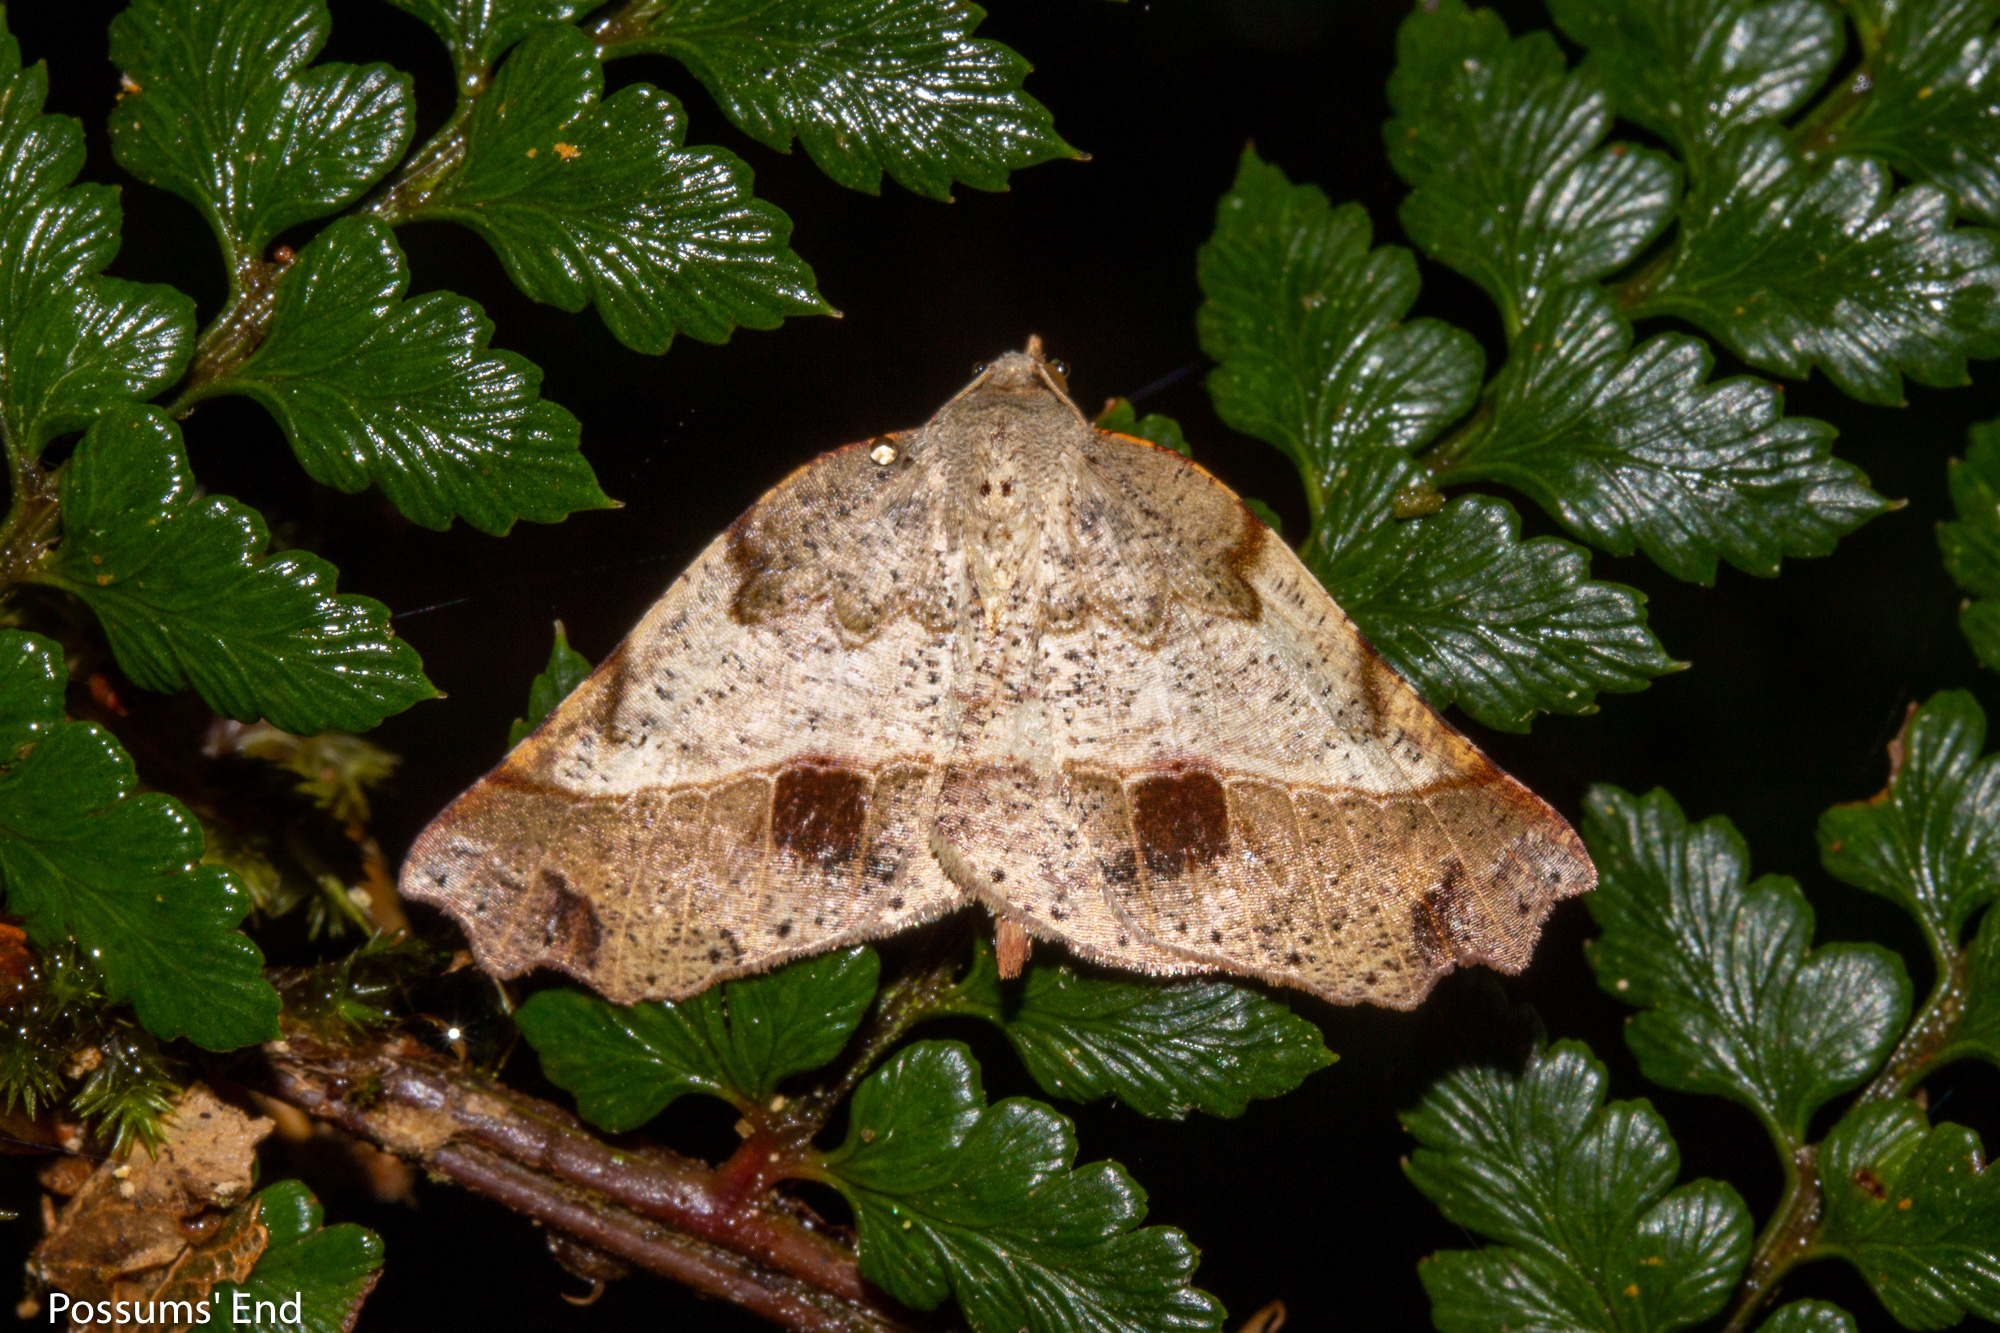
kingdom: Animalia
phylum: Arthropoda
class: Insecta
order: Lepidoptera
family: Geometridae
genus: Ischalis
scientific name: Ischalis gallaria
